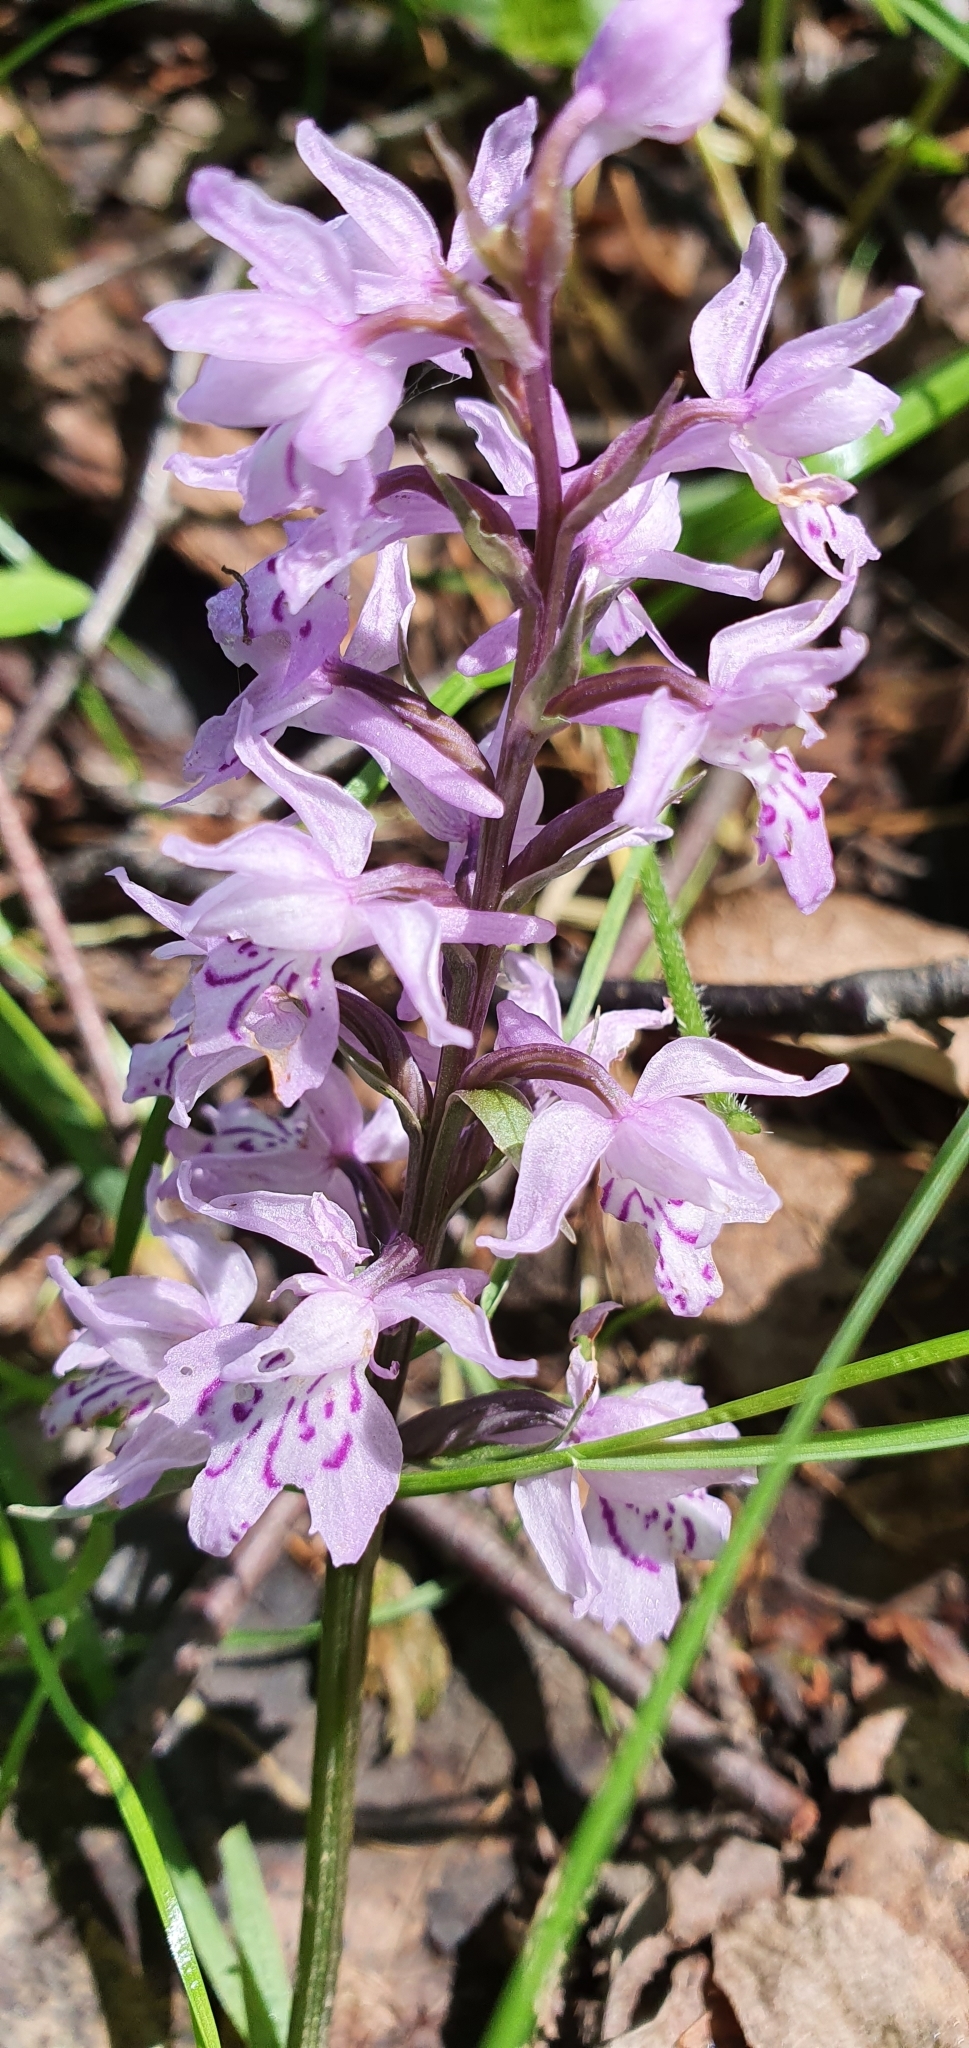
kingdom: Plantae
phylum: Tracheophyta
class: Liliopsida
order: Asparagales
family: Orchidaceae
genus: Dactylorhiza
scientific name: Dactylorhiza maculata
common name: Heath spotted-orchid
